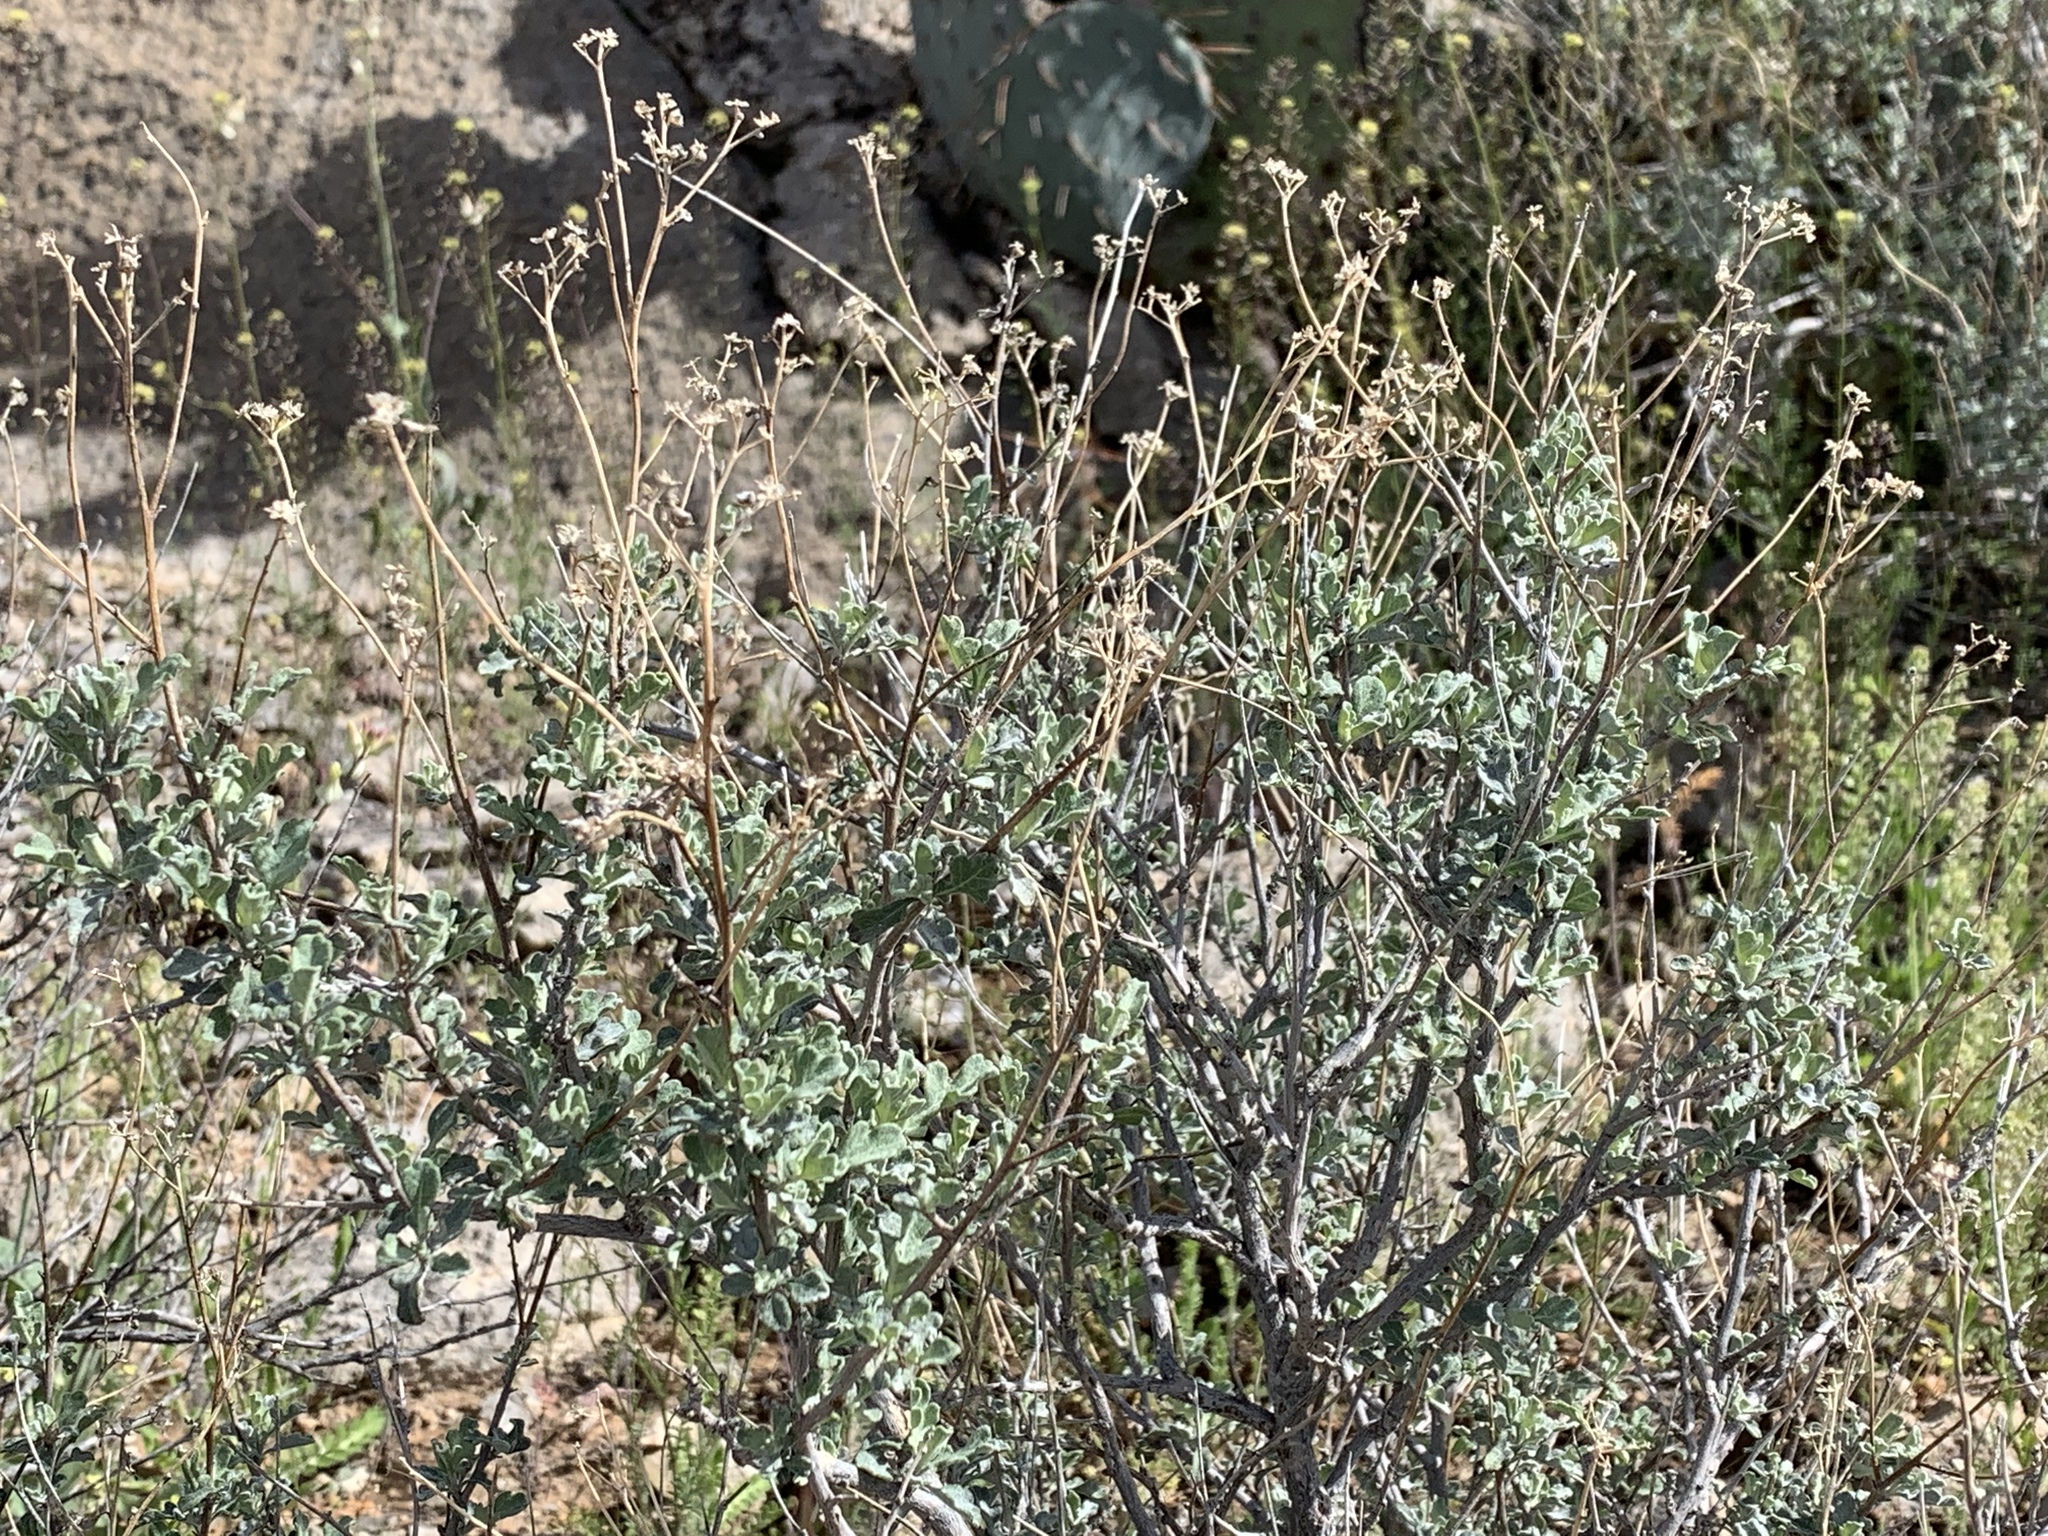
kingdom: Plantae
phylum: Tracheophyta
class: Magnoliopsida
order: Asterales
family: Asteraceae
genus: Parthenium
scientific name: Parthenium incanum
